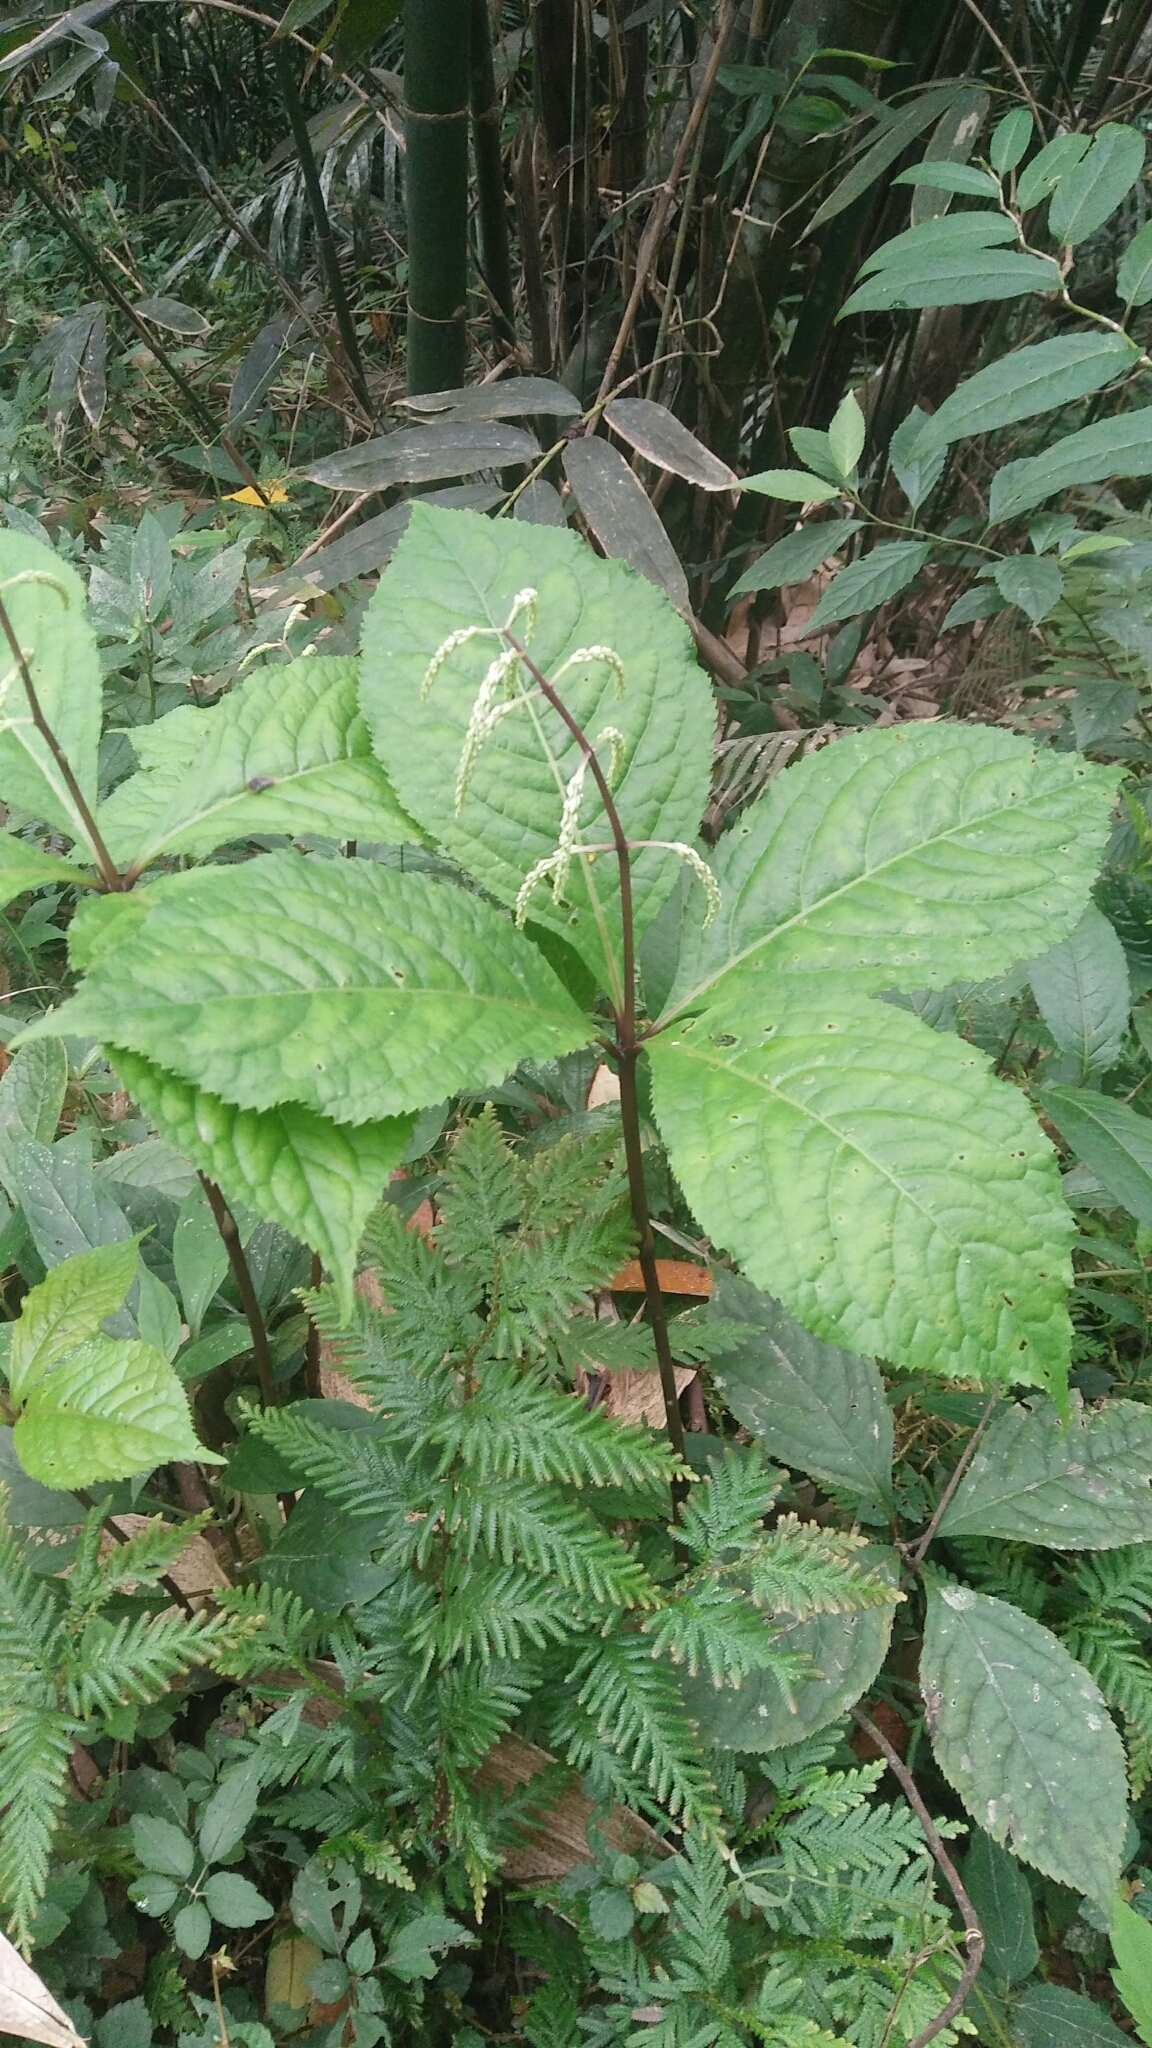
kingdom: Plantae
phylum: Tracheophyta
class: Magnoliopsida
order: Chloranthales
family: Chloranthaceae
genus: Chloranthus
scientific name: Chloranthus oldhamii
